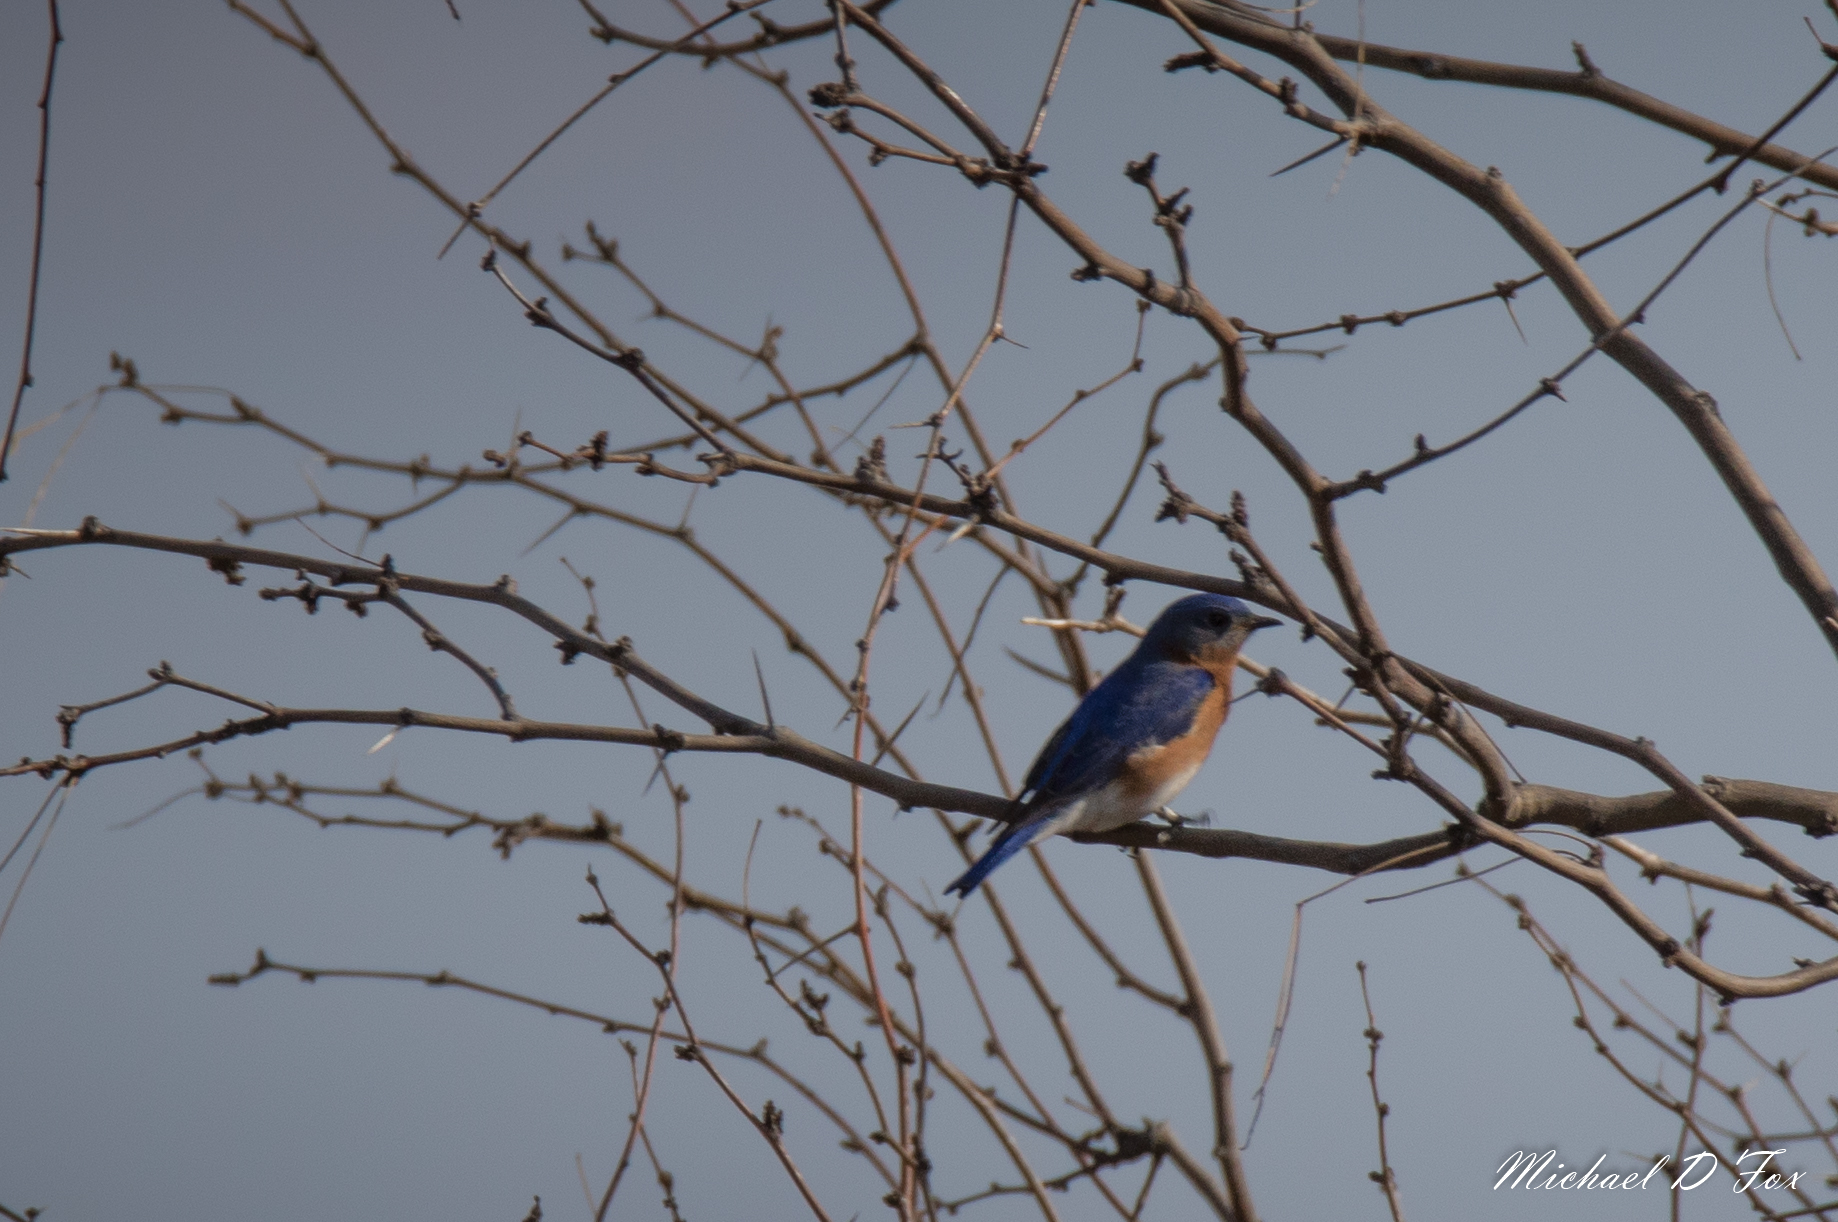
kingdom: Animalia
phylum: Chordata
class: Aves
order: Passeriformes
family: Turdidae
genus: Sialia
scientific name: Sialia sialis
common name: Eastern bluebird
